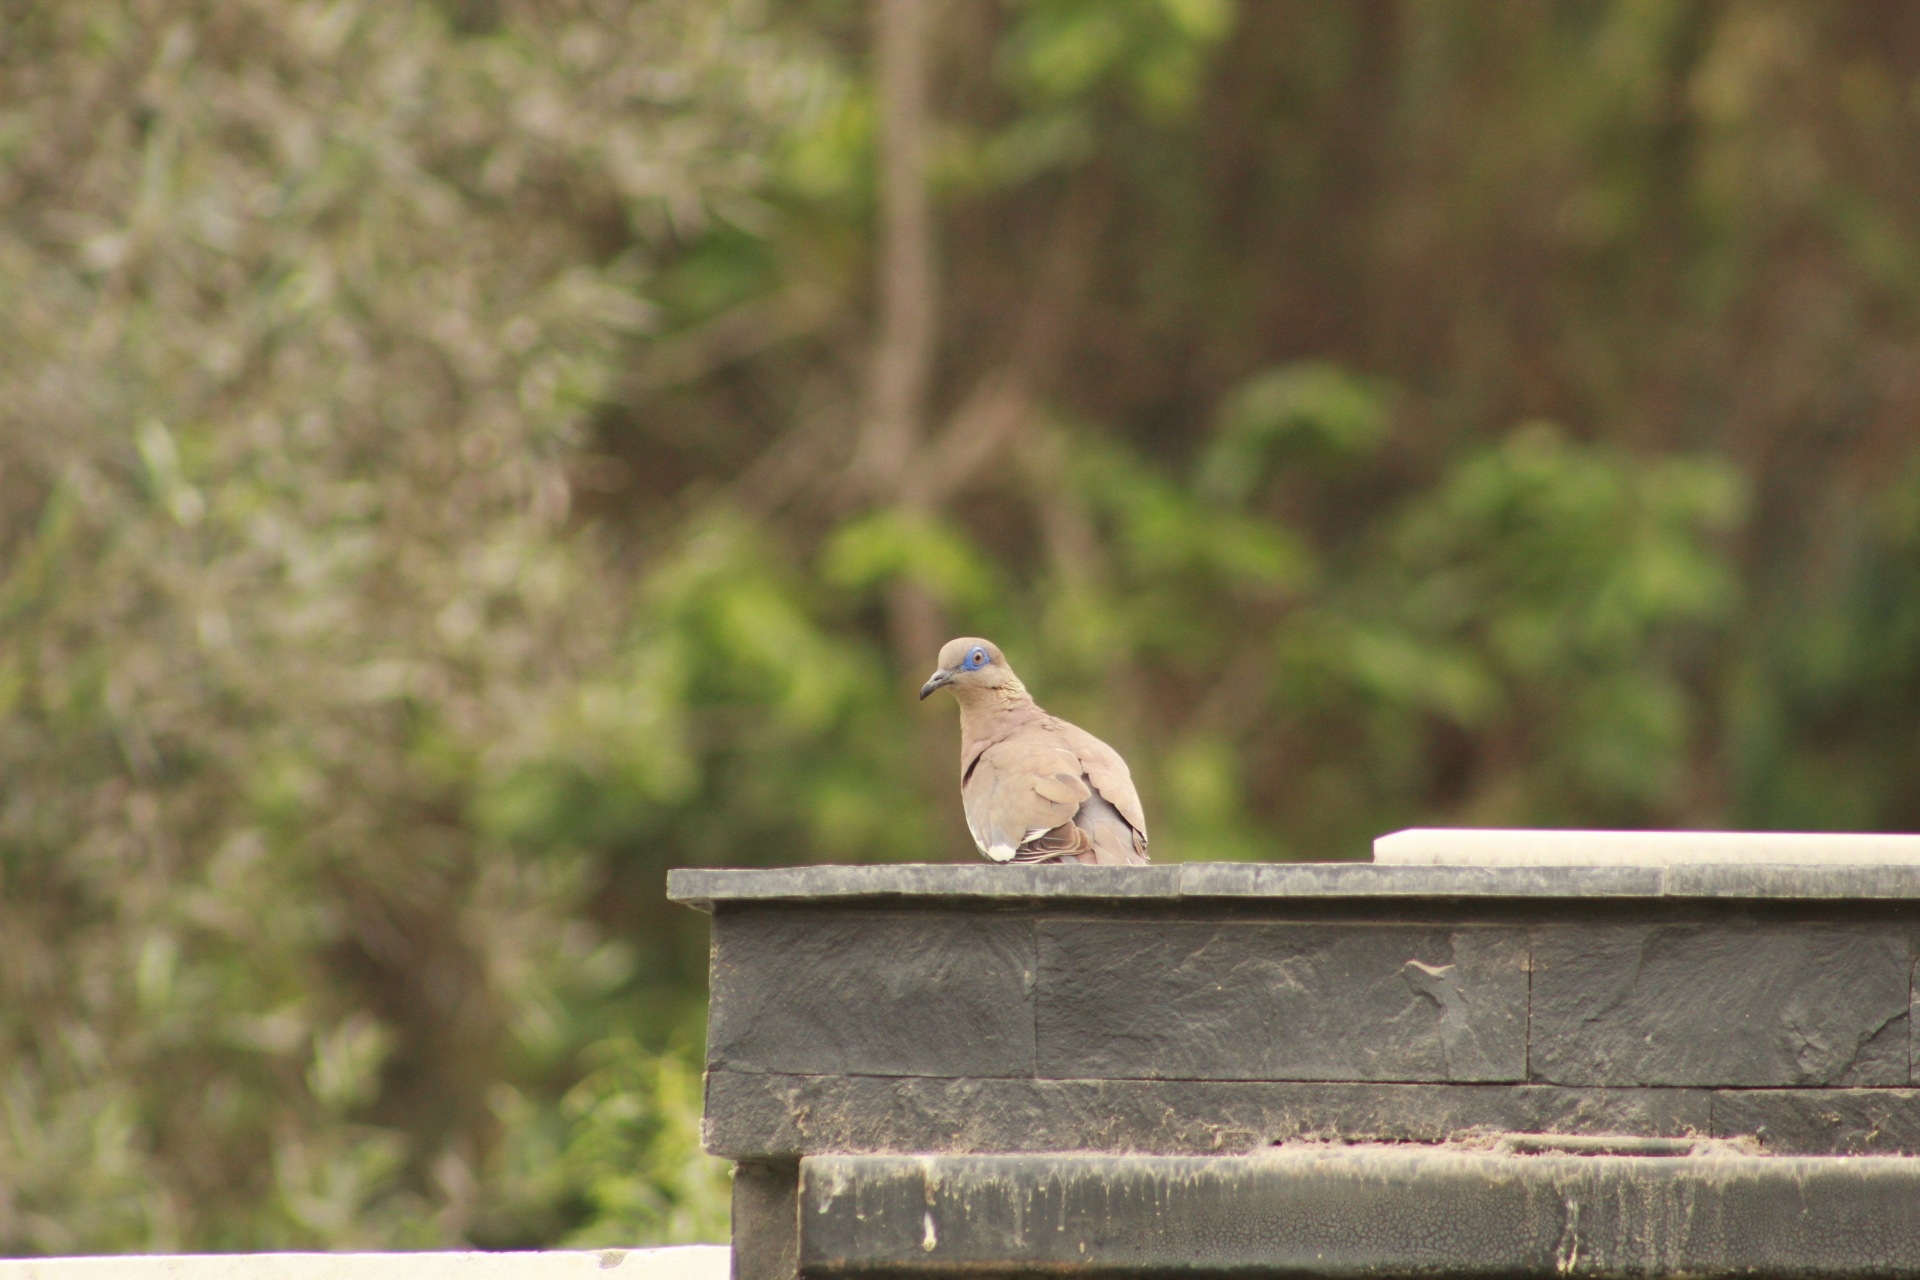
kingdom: Animalia
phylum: Chordata
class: Aves
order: Columbiformes
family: Columbidae
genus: Zenaida
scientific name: Zenaida meloda
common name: West peruvian dove
